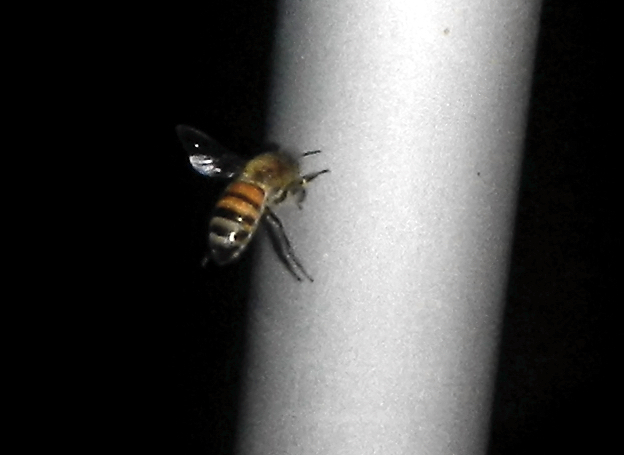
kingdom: Animalia
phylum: Arthropoda
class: Insecta
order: Hymenoptera
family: Apidae
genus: Apis
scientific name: Apis mellifera
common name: Honey bee
